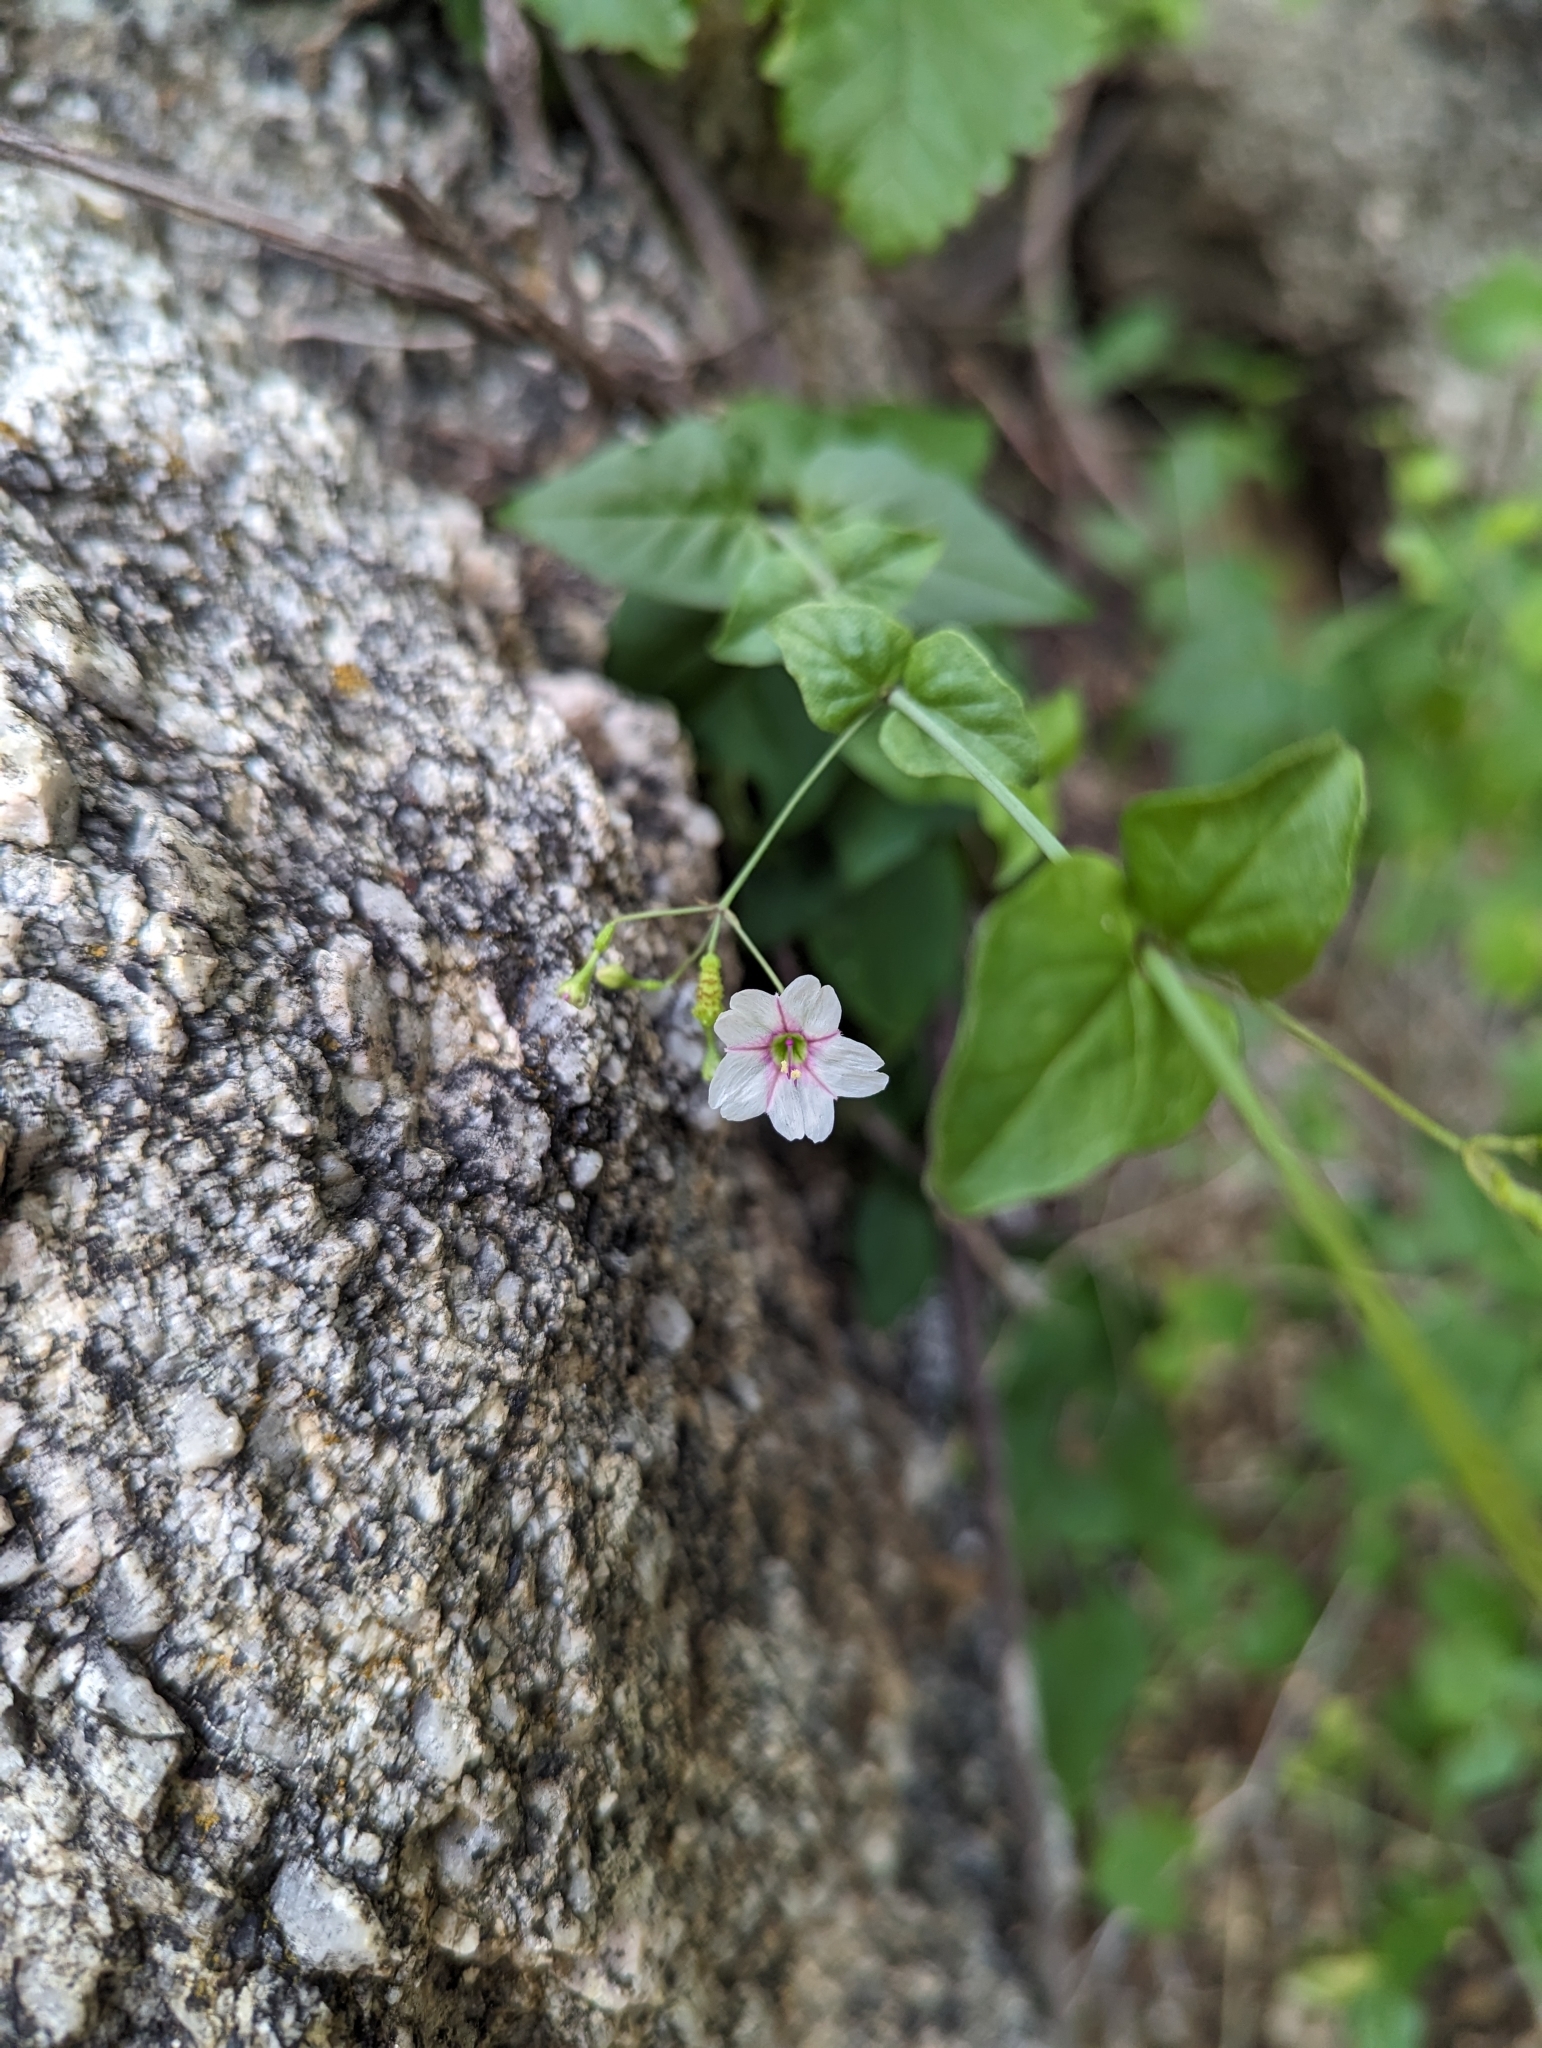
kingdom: Plantae
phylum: Tracheophyta
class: Magnoliopsida
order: Caryophyllales
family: Nyctaginaceae
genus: Commicarpus
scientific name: Commicarpus brandegeei
